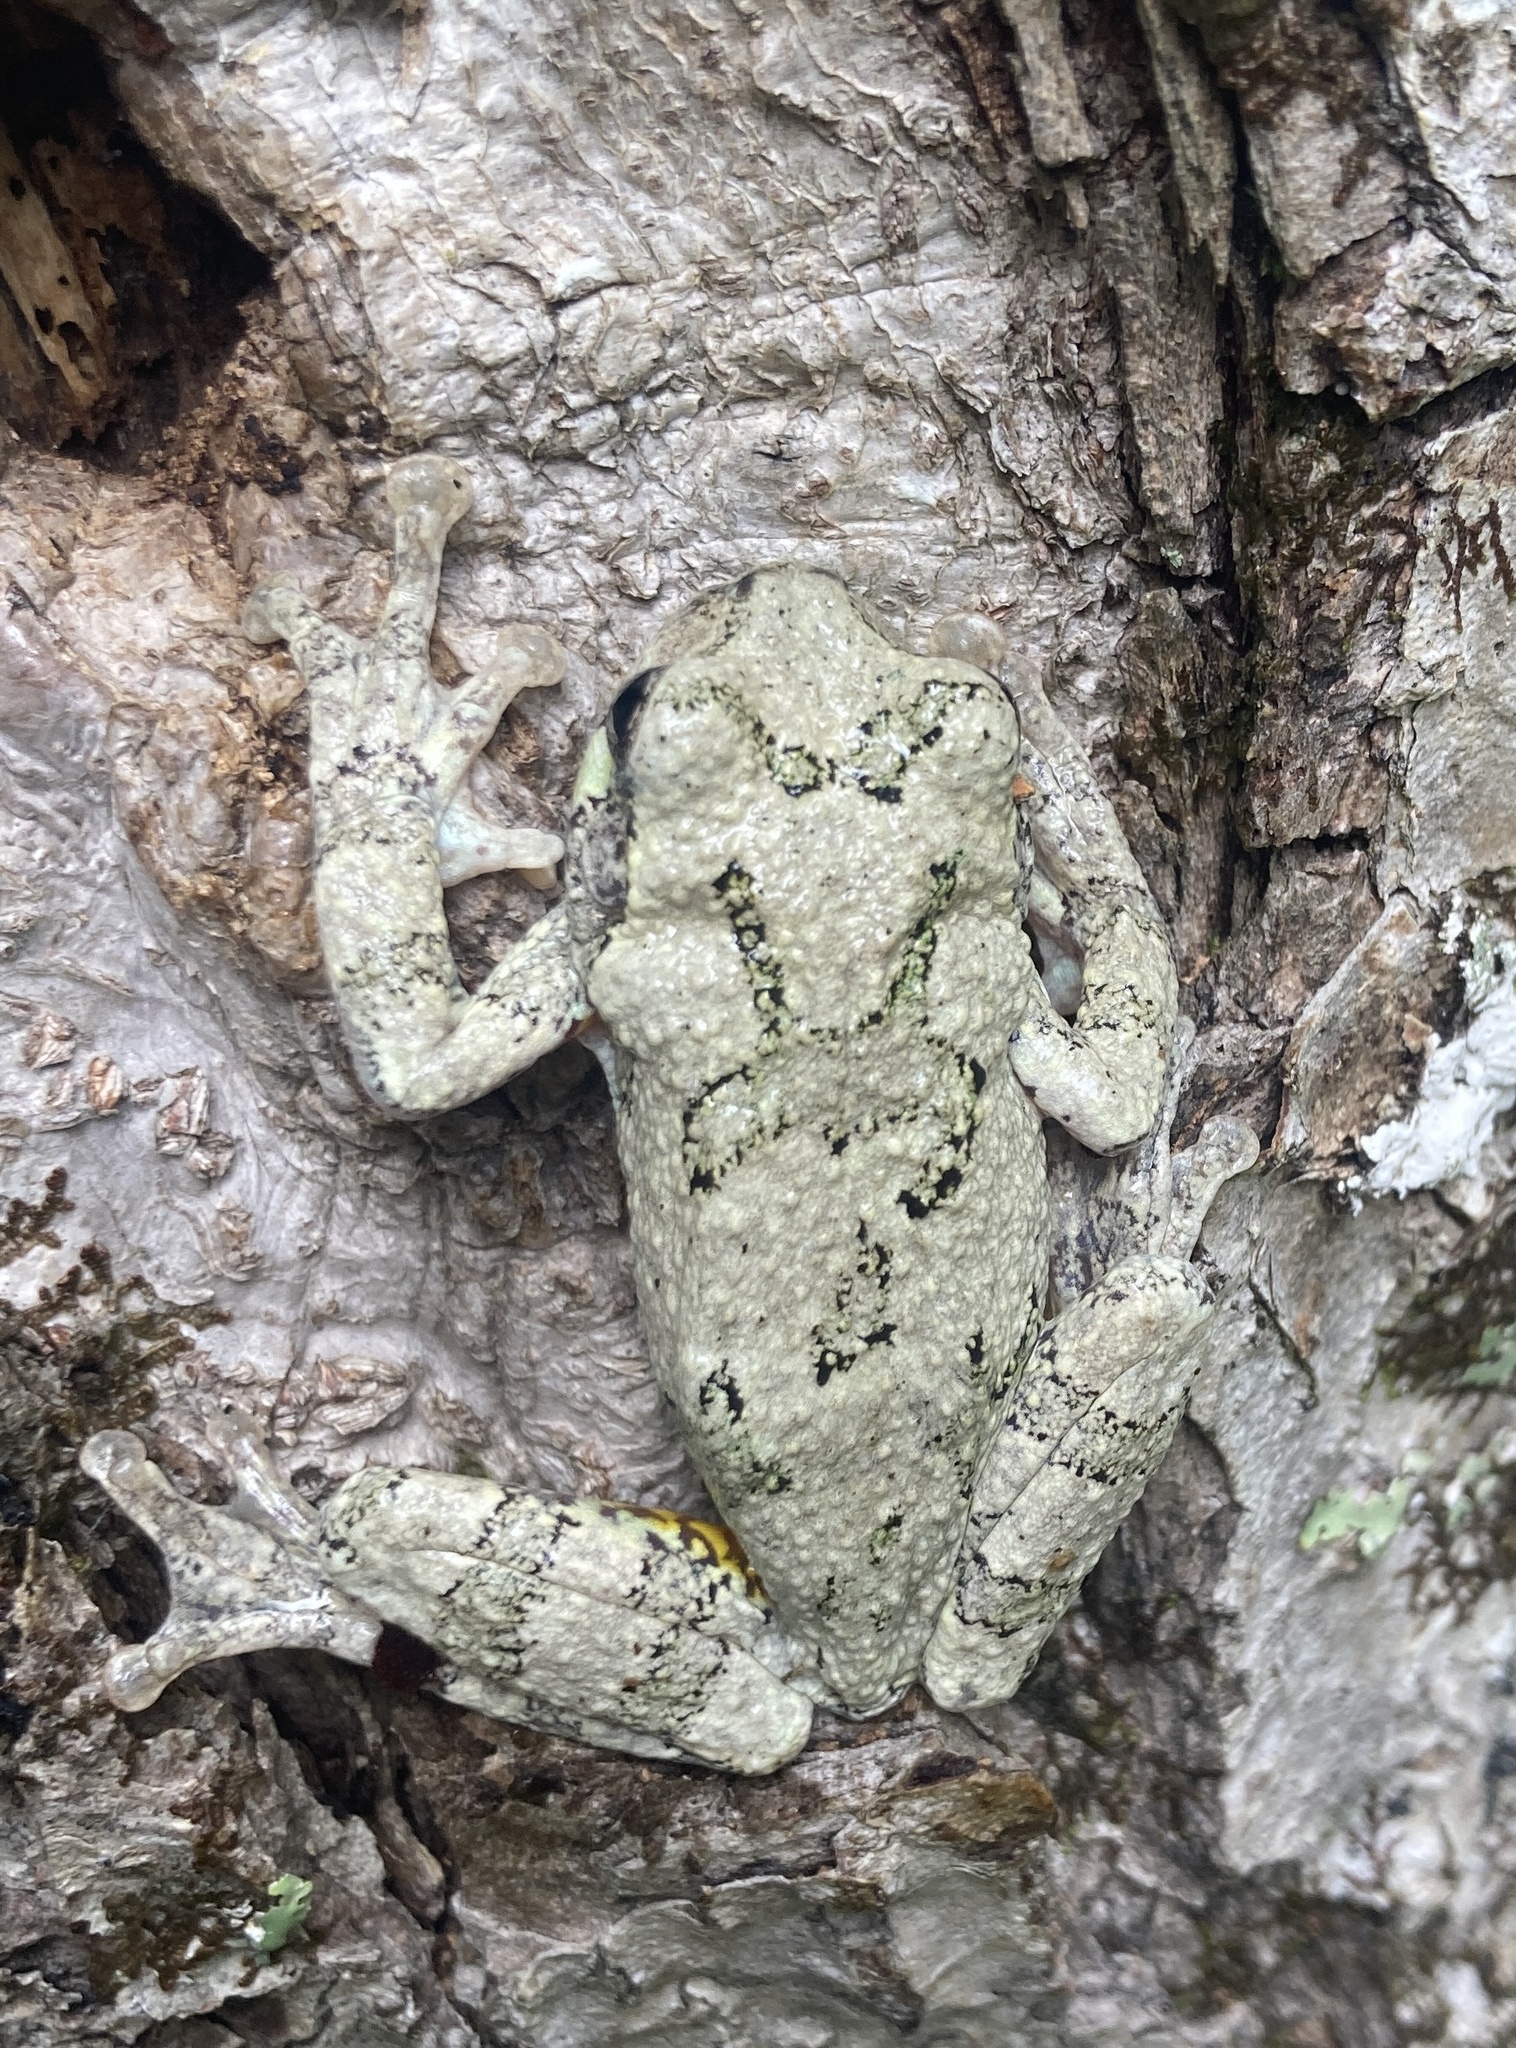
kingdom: Animalia
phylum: Chordata
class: Amphibia
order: Anura
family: Hylidae
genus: Dryophytes
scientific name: Dryophytes versicolor
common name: Gray treefrog
